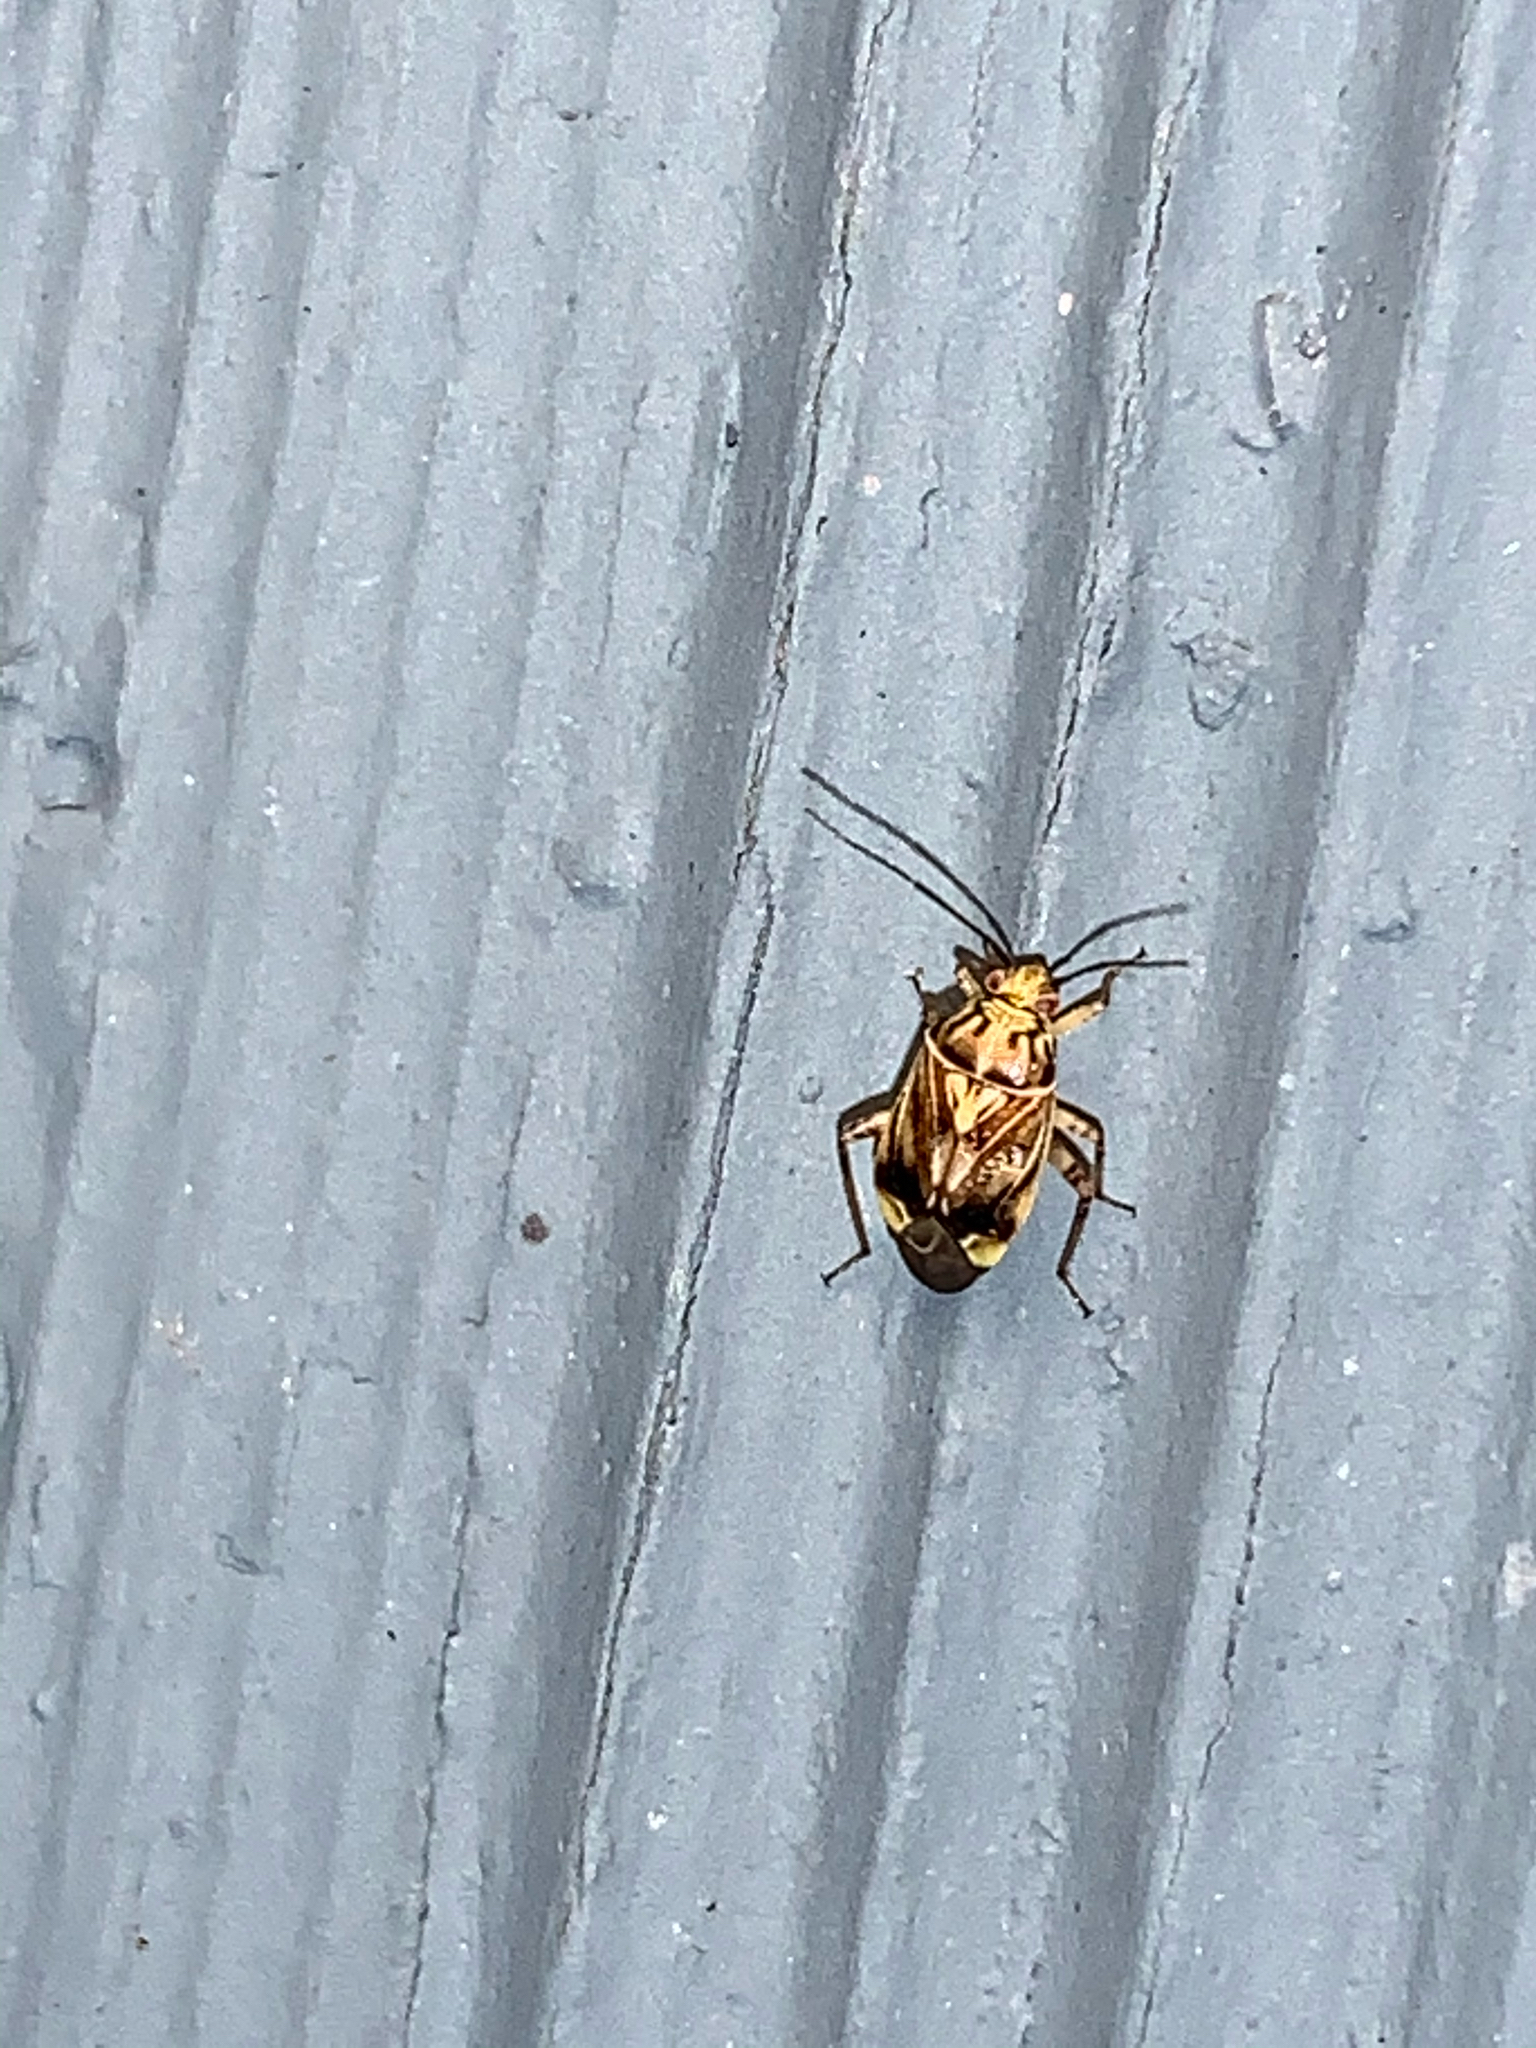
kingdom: Animalia
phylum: Arthropoda
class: Insecta
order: Hemiptera
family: Miridae
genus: Lygus
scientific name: Lygus lineolaris
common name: North american tarnished plant bug
